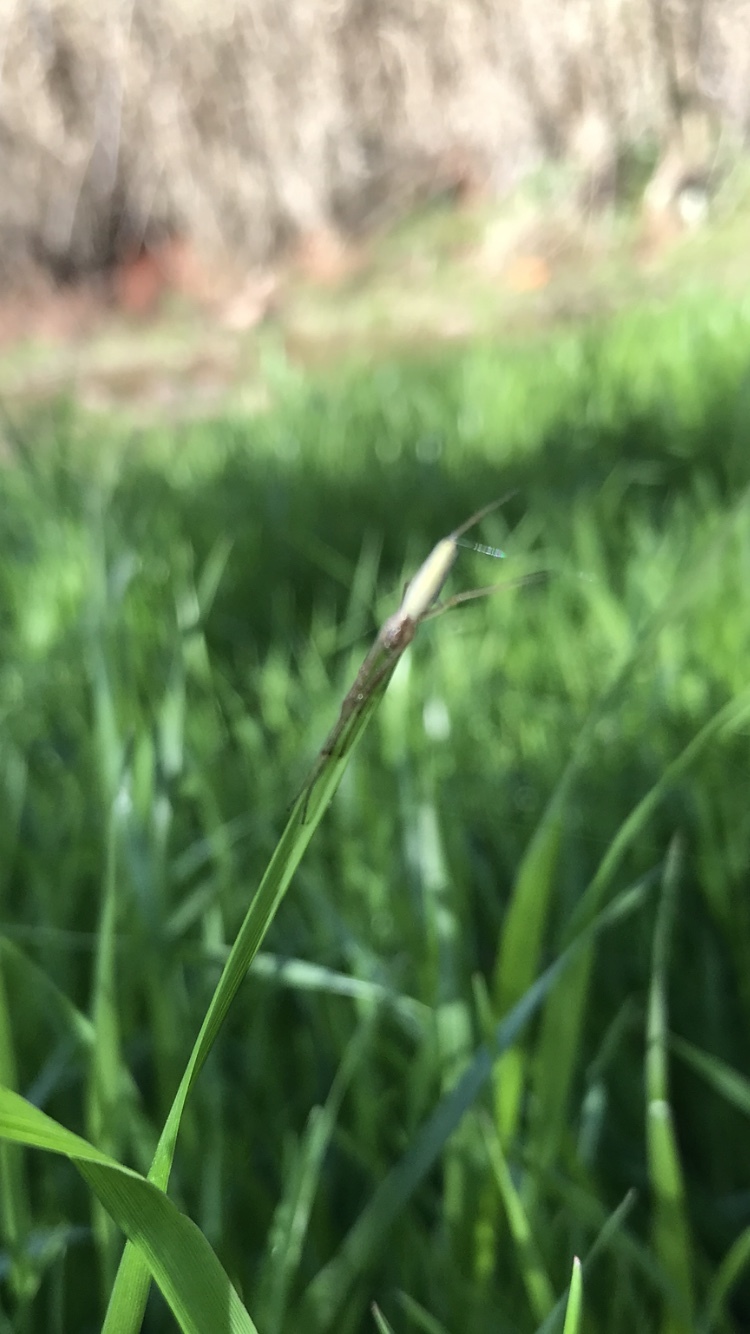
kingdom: Animalia
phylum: Arthropoda
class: Arachnida
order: Araneae
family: Tetragnathidae
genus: Tetragnatha
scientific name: Tetragnatha
